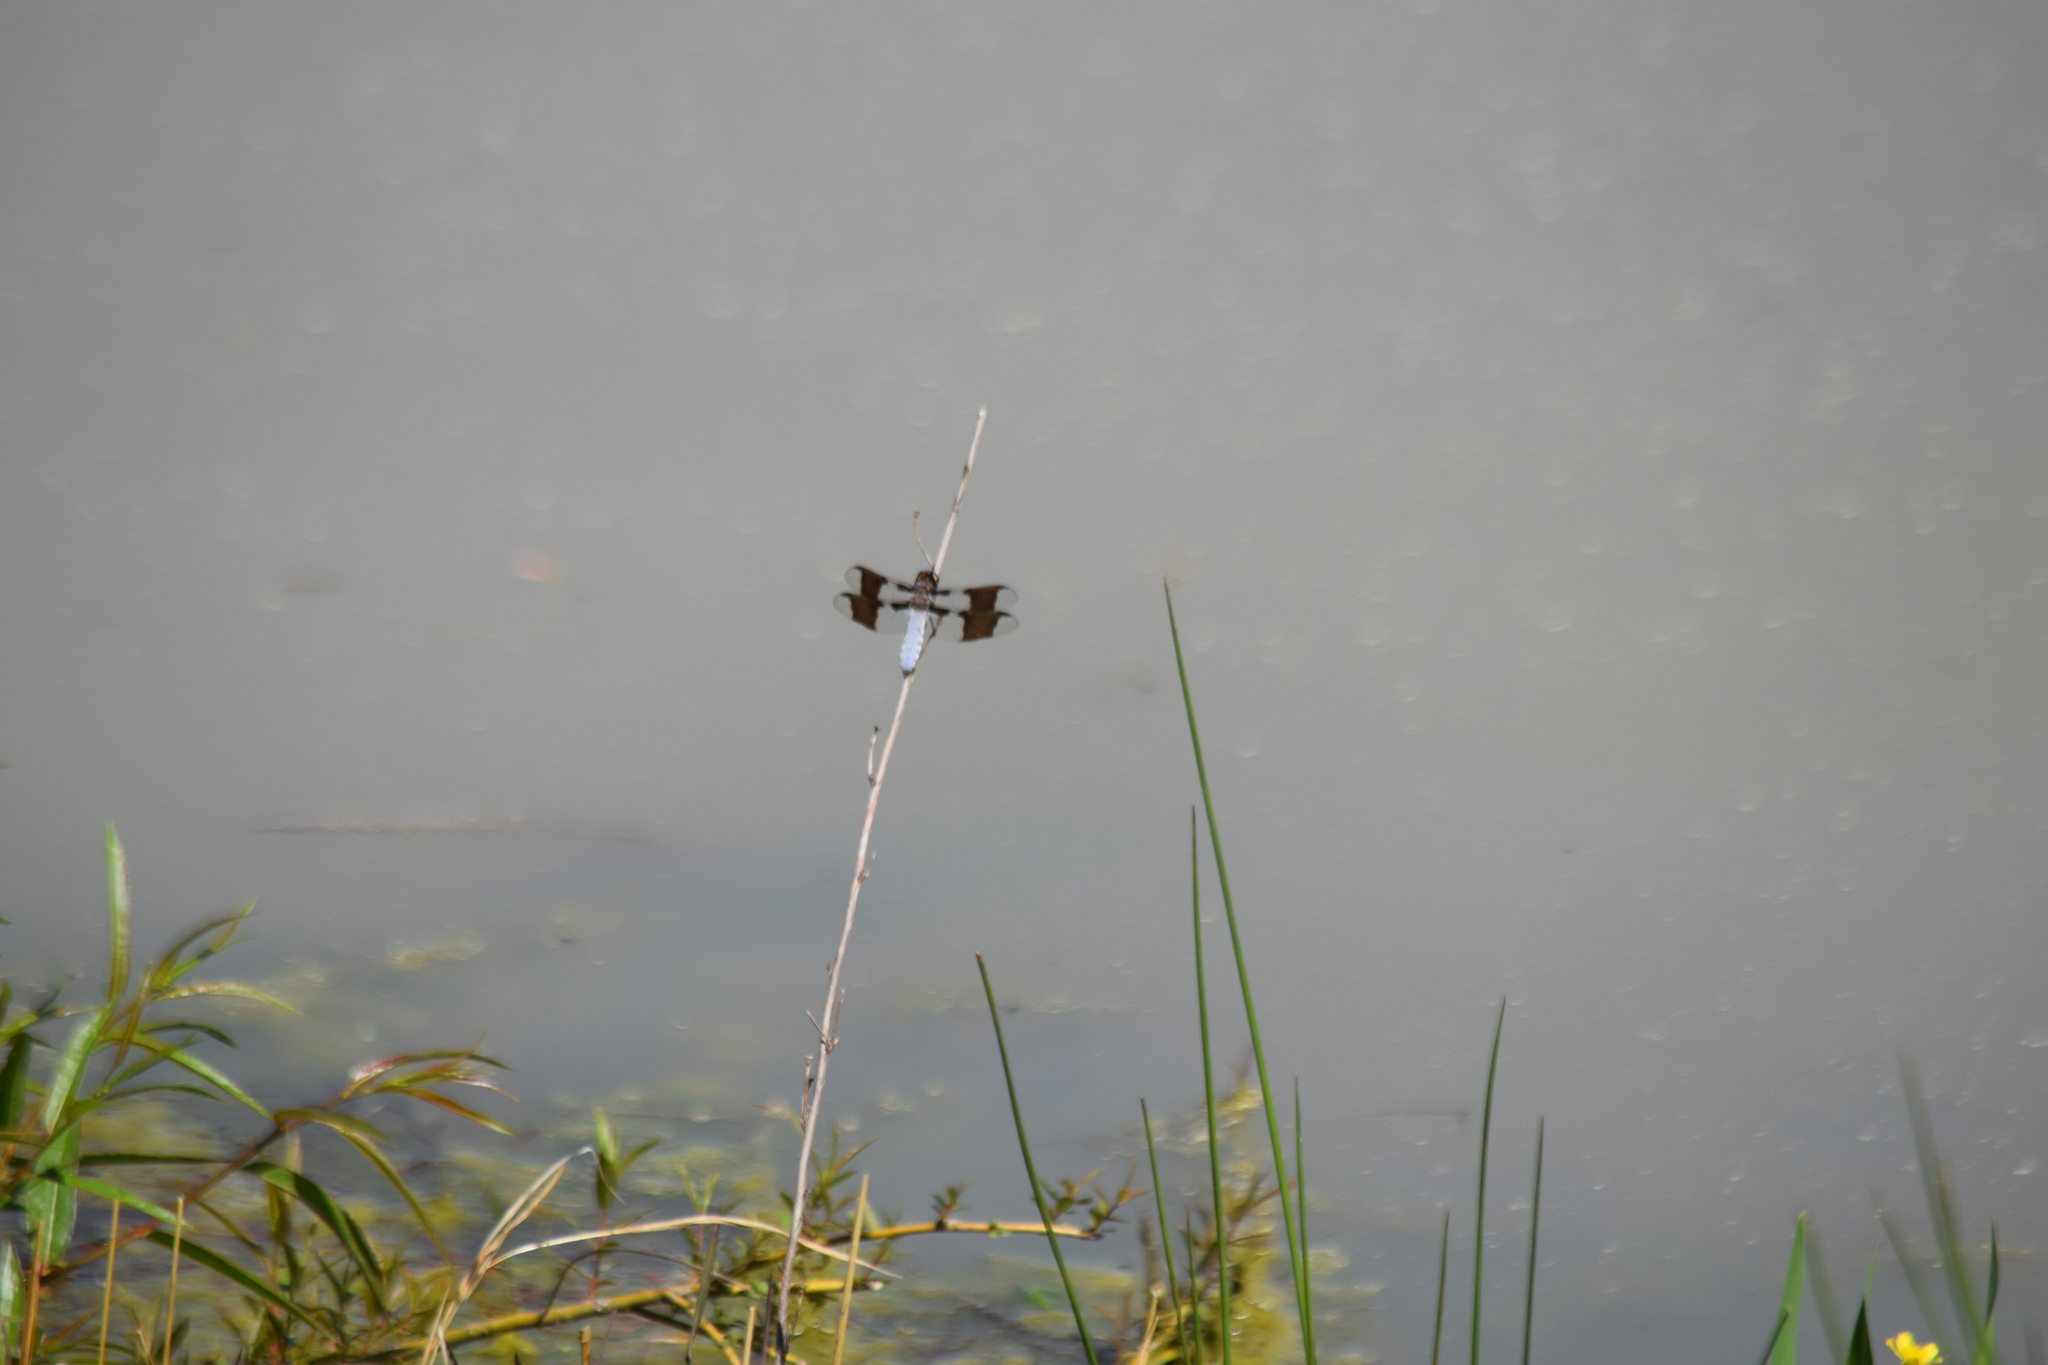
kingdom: Animalia
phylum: Arthropoda
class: Insecta
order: Odonata
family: Libellulidae
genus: Plathemis
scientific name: Plathemis lydia
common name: Common whitetail
